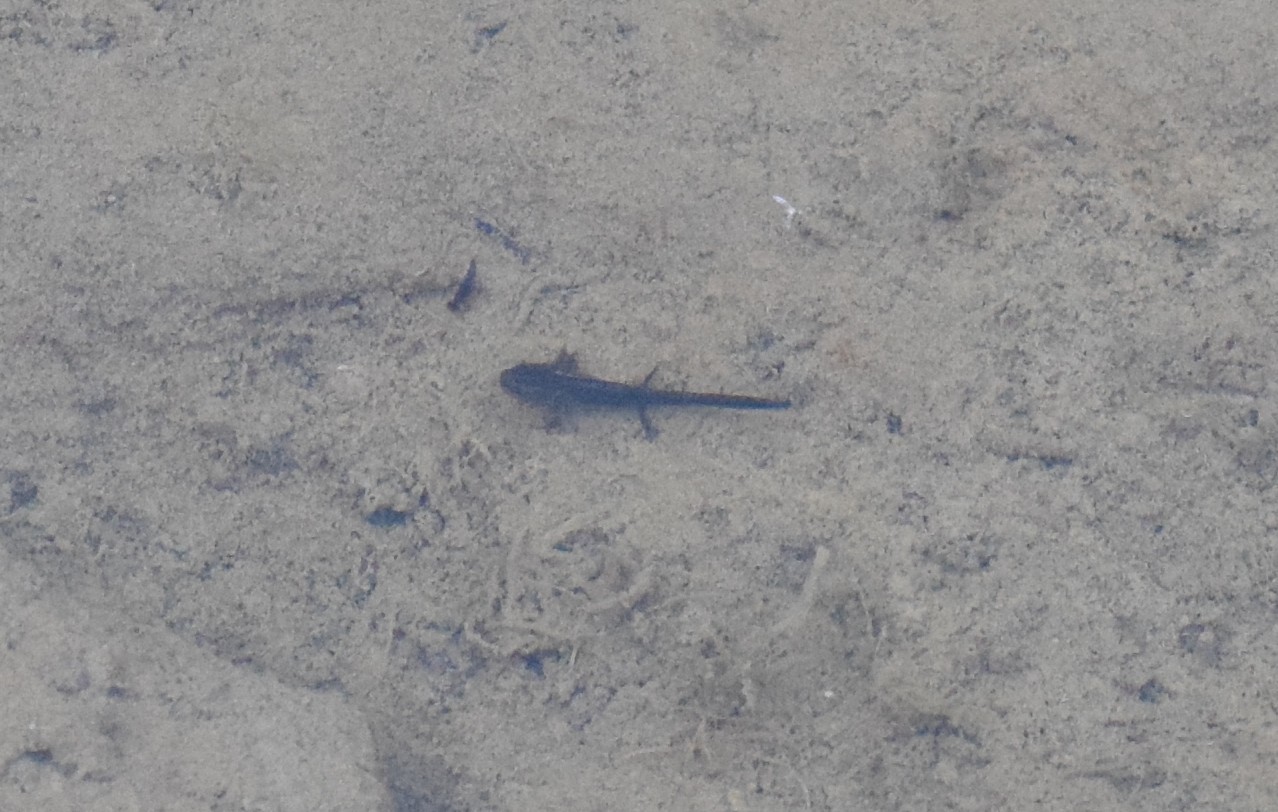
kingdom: Animalia
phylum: Chordata
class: Amphibia
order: Caudata
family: Salamandridae
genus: Ichthyosaura
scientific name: Ichthyosaura alpestris
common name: Alpine newt
